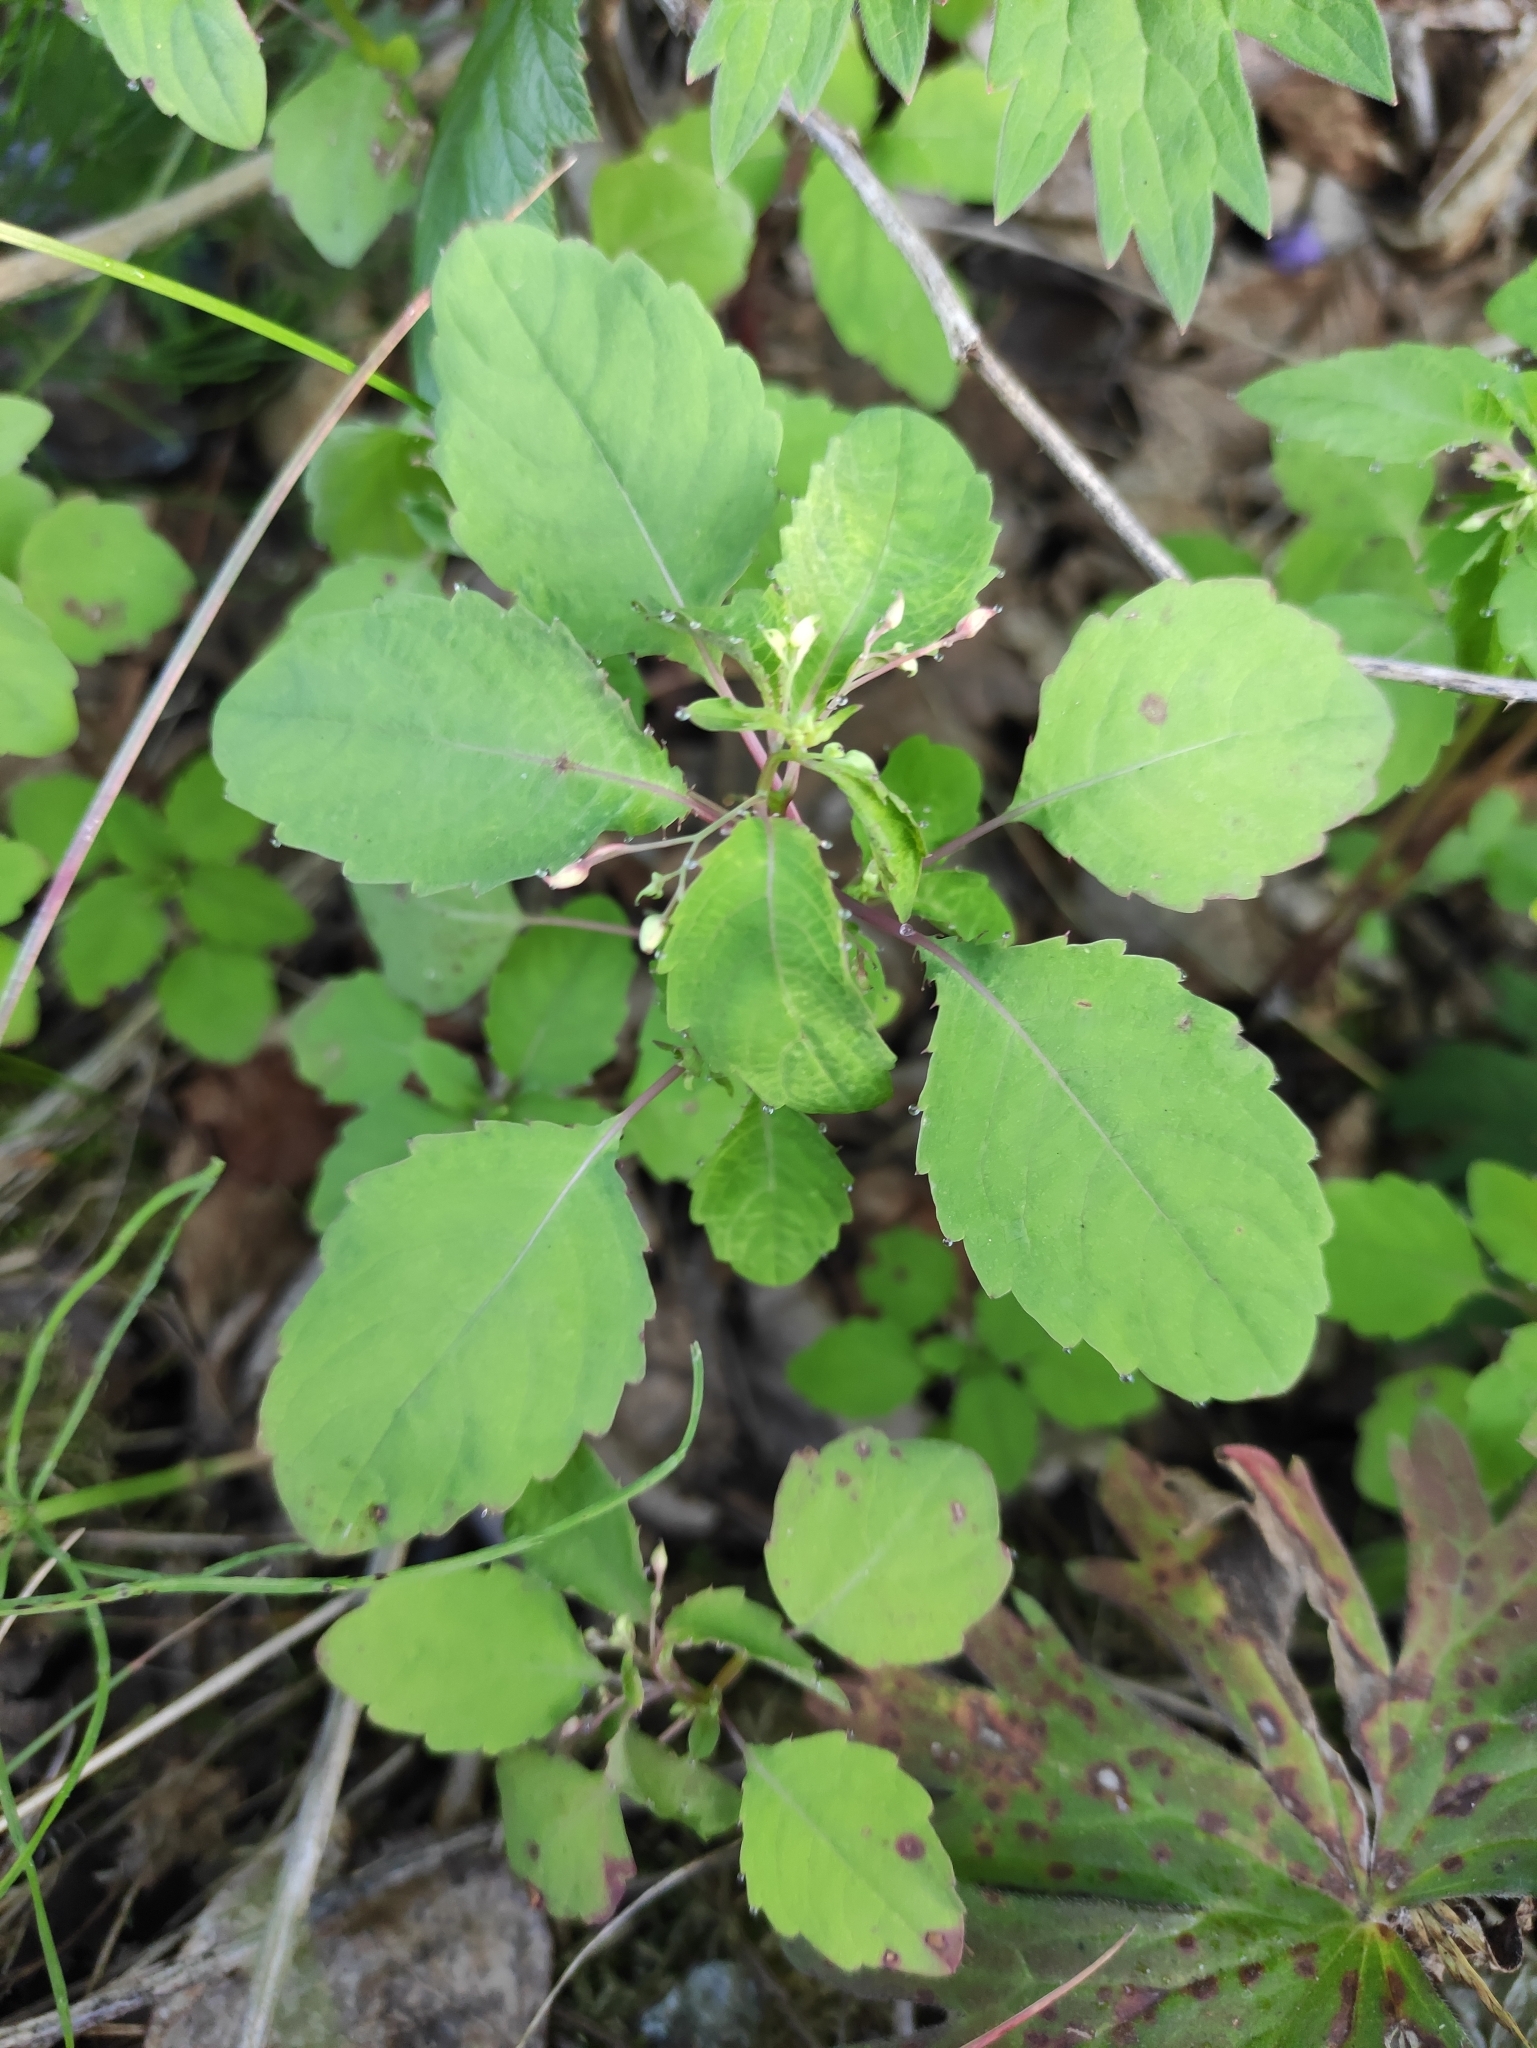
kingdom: Plantae
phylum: Tracheophyta
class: Magnoliopsida
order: Ericales
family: Balsaminaceae
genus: Impatiens
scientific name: Impatiens noli-tangere
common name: Touch-me-not balsam
